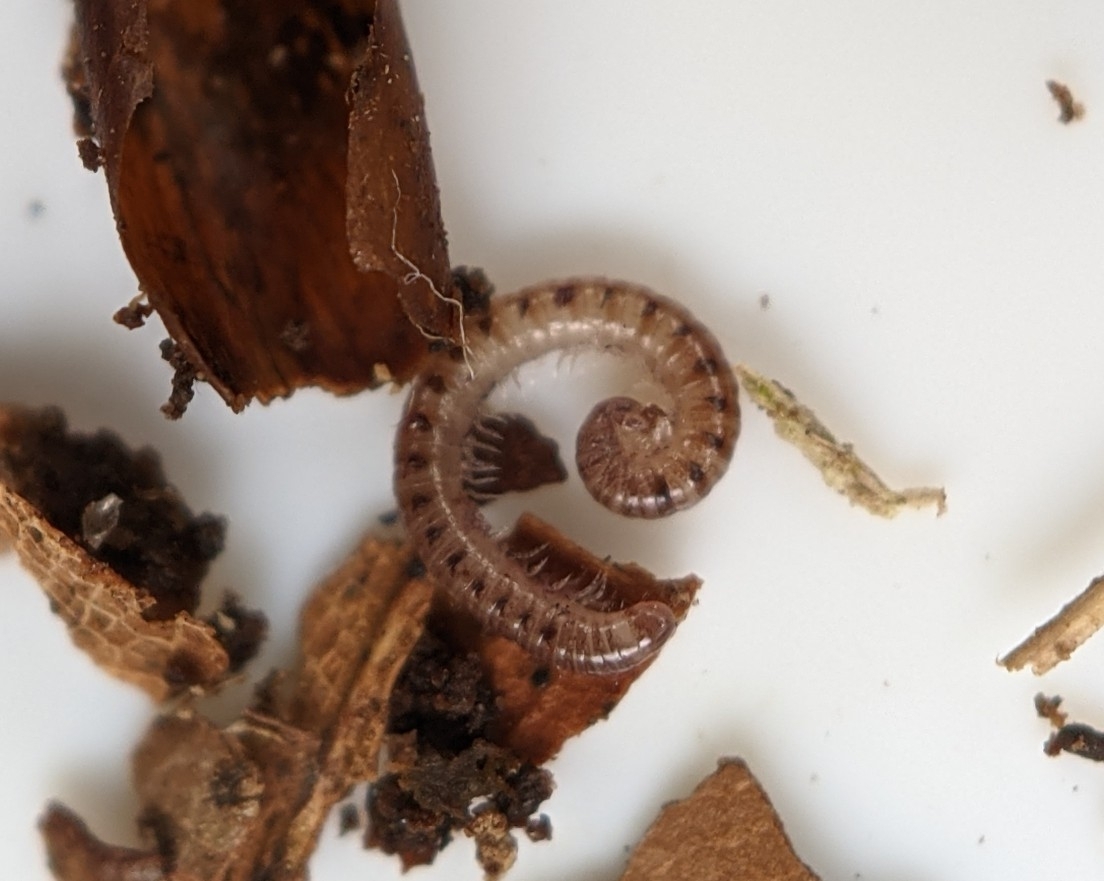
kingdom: Animalia
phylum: Arthropoda
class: Diplopoda
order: Julida
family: Blaniulidae
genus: Proteroiulus
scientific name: Proteroiulus fuscus
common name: Millipede
